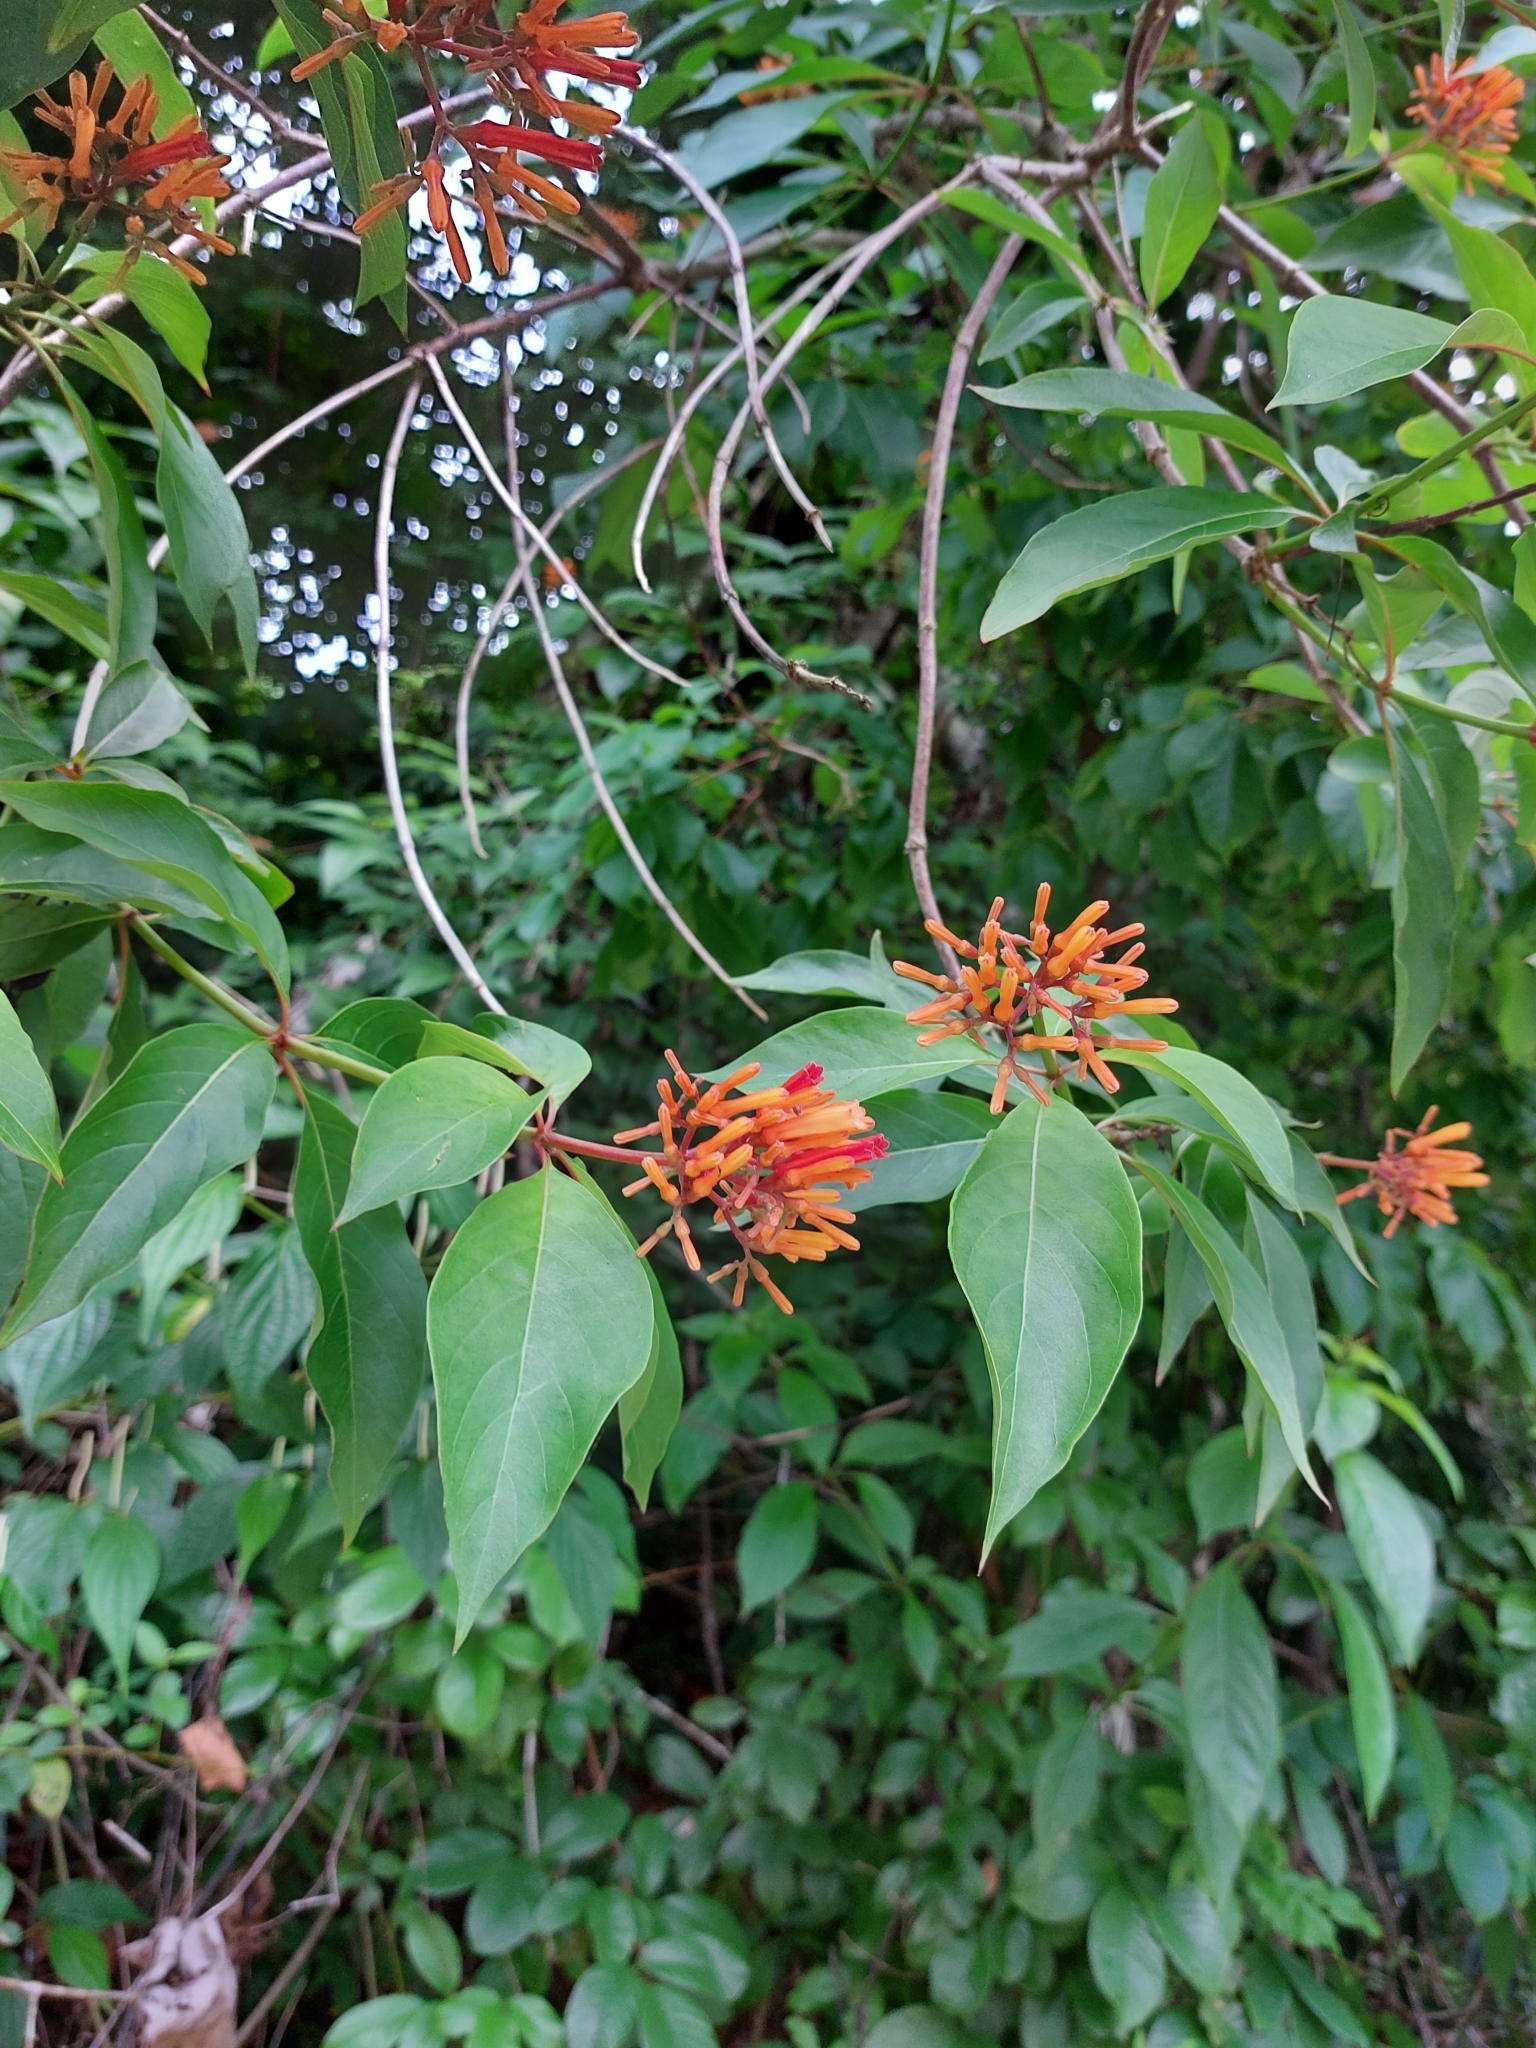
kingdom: Plantae
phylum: Tracheophyta
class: Magnoliopsida
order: Gentianales
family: Rubiaceae
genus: Hamelia
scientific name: Hamelia patens
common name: Redhead
